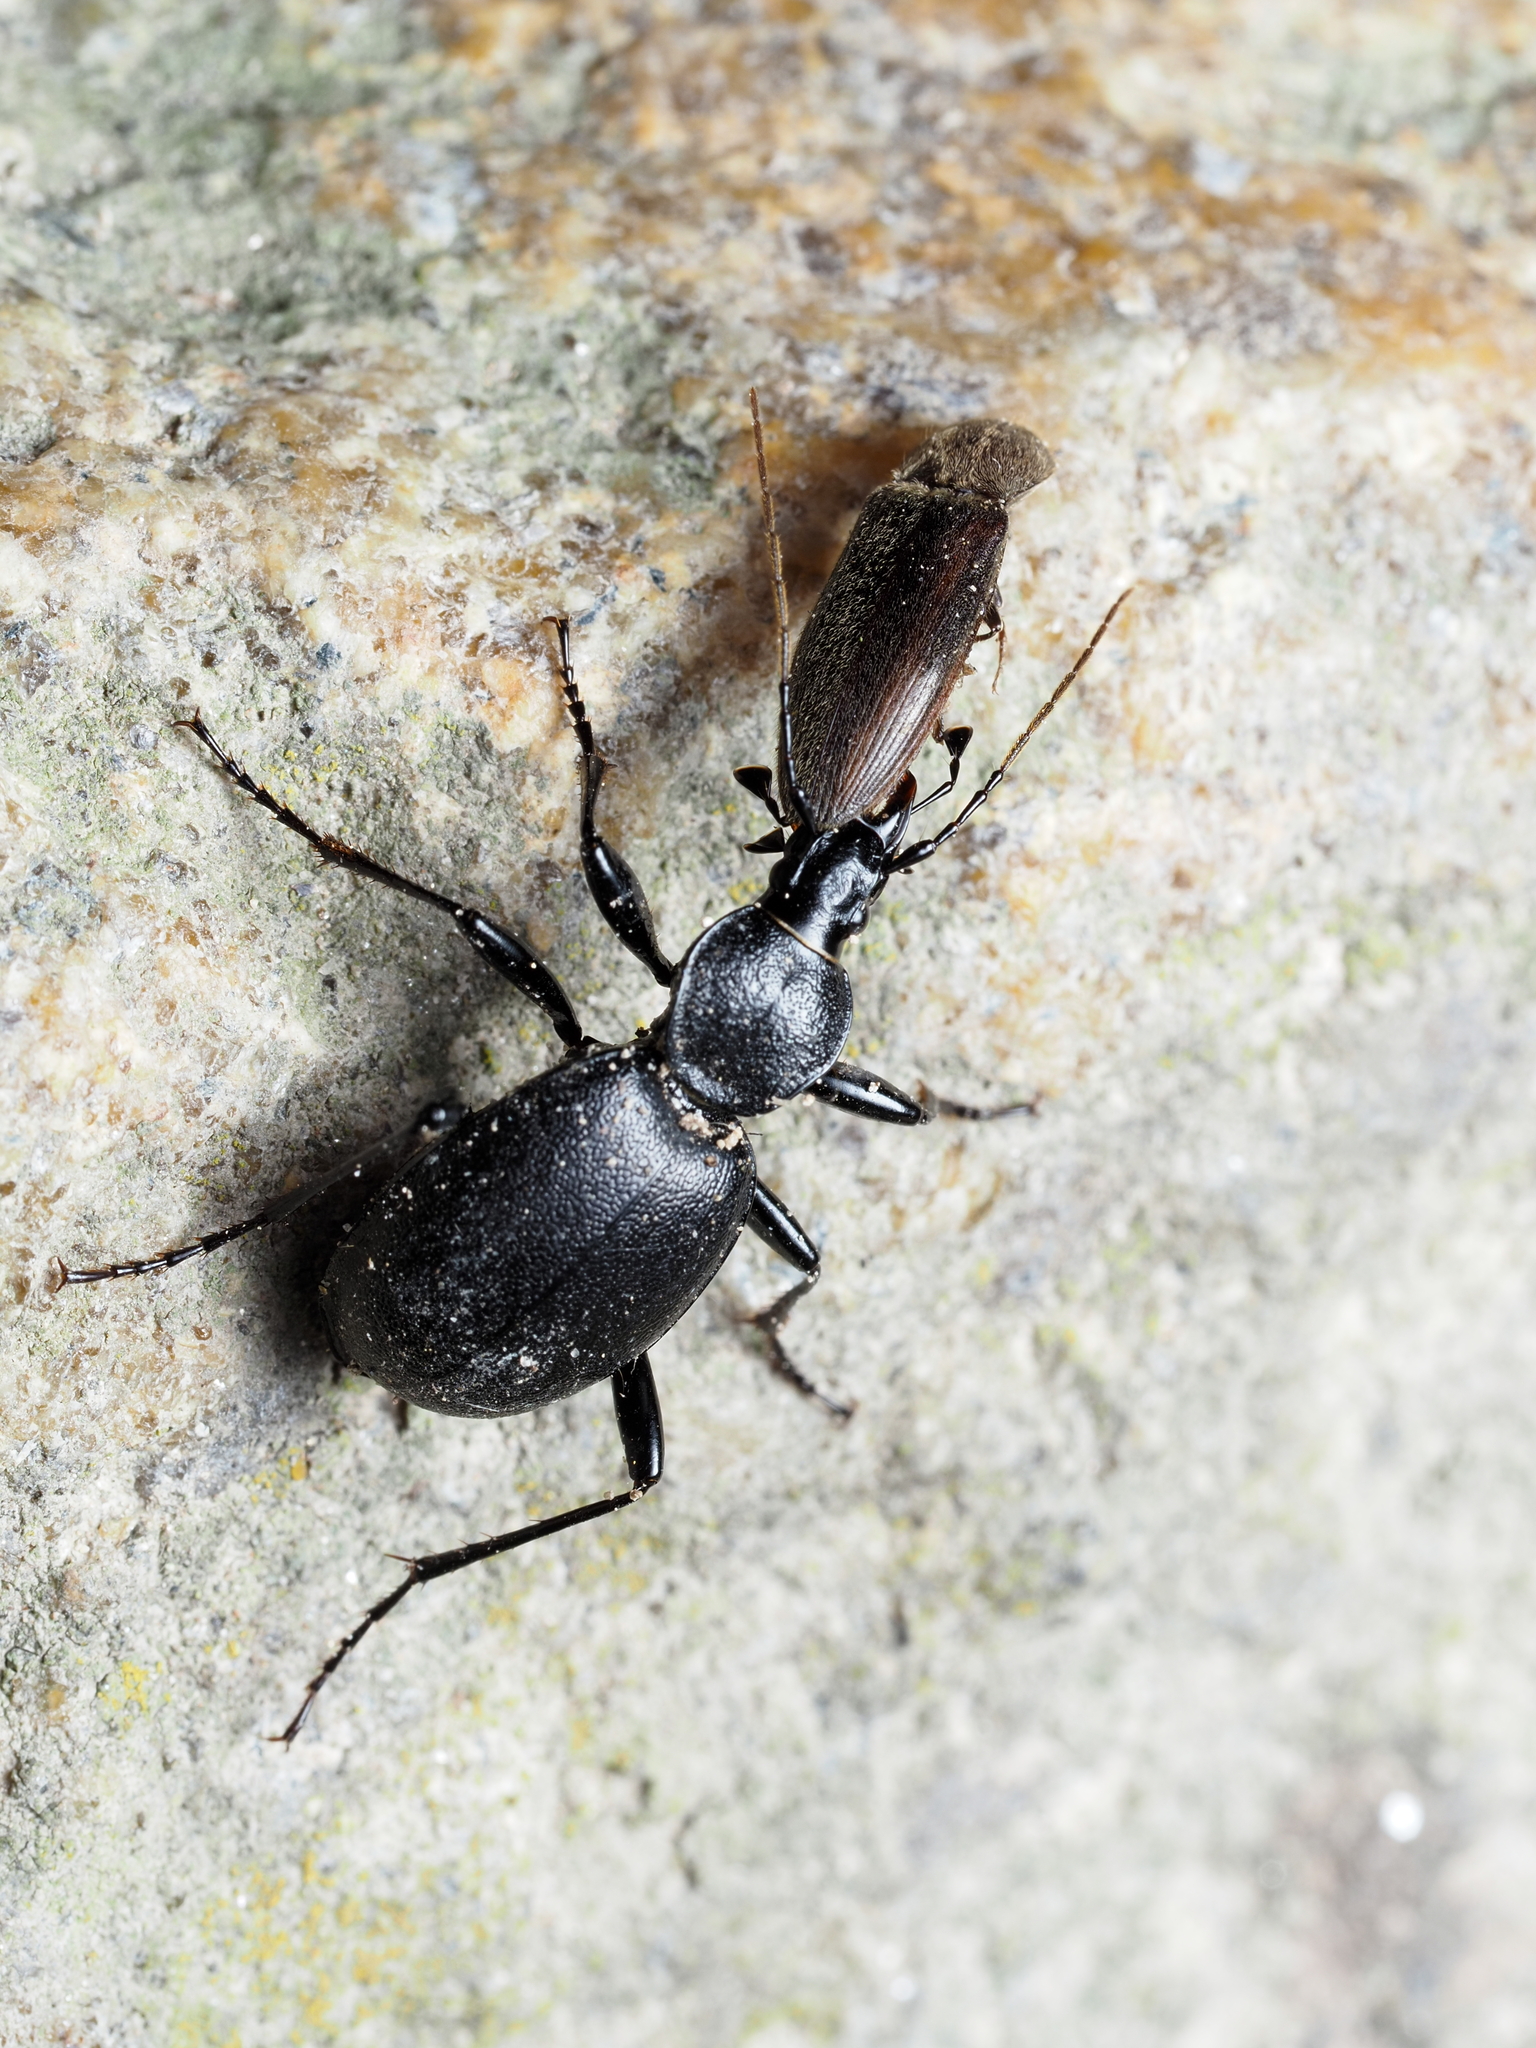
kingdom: Animalia
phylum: Arthropoda
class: Insecta
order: Coleoptera
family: Carabidae
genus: Cychrus
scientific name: Cychrus caraboides
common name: Snail hunter
